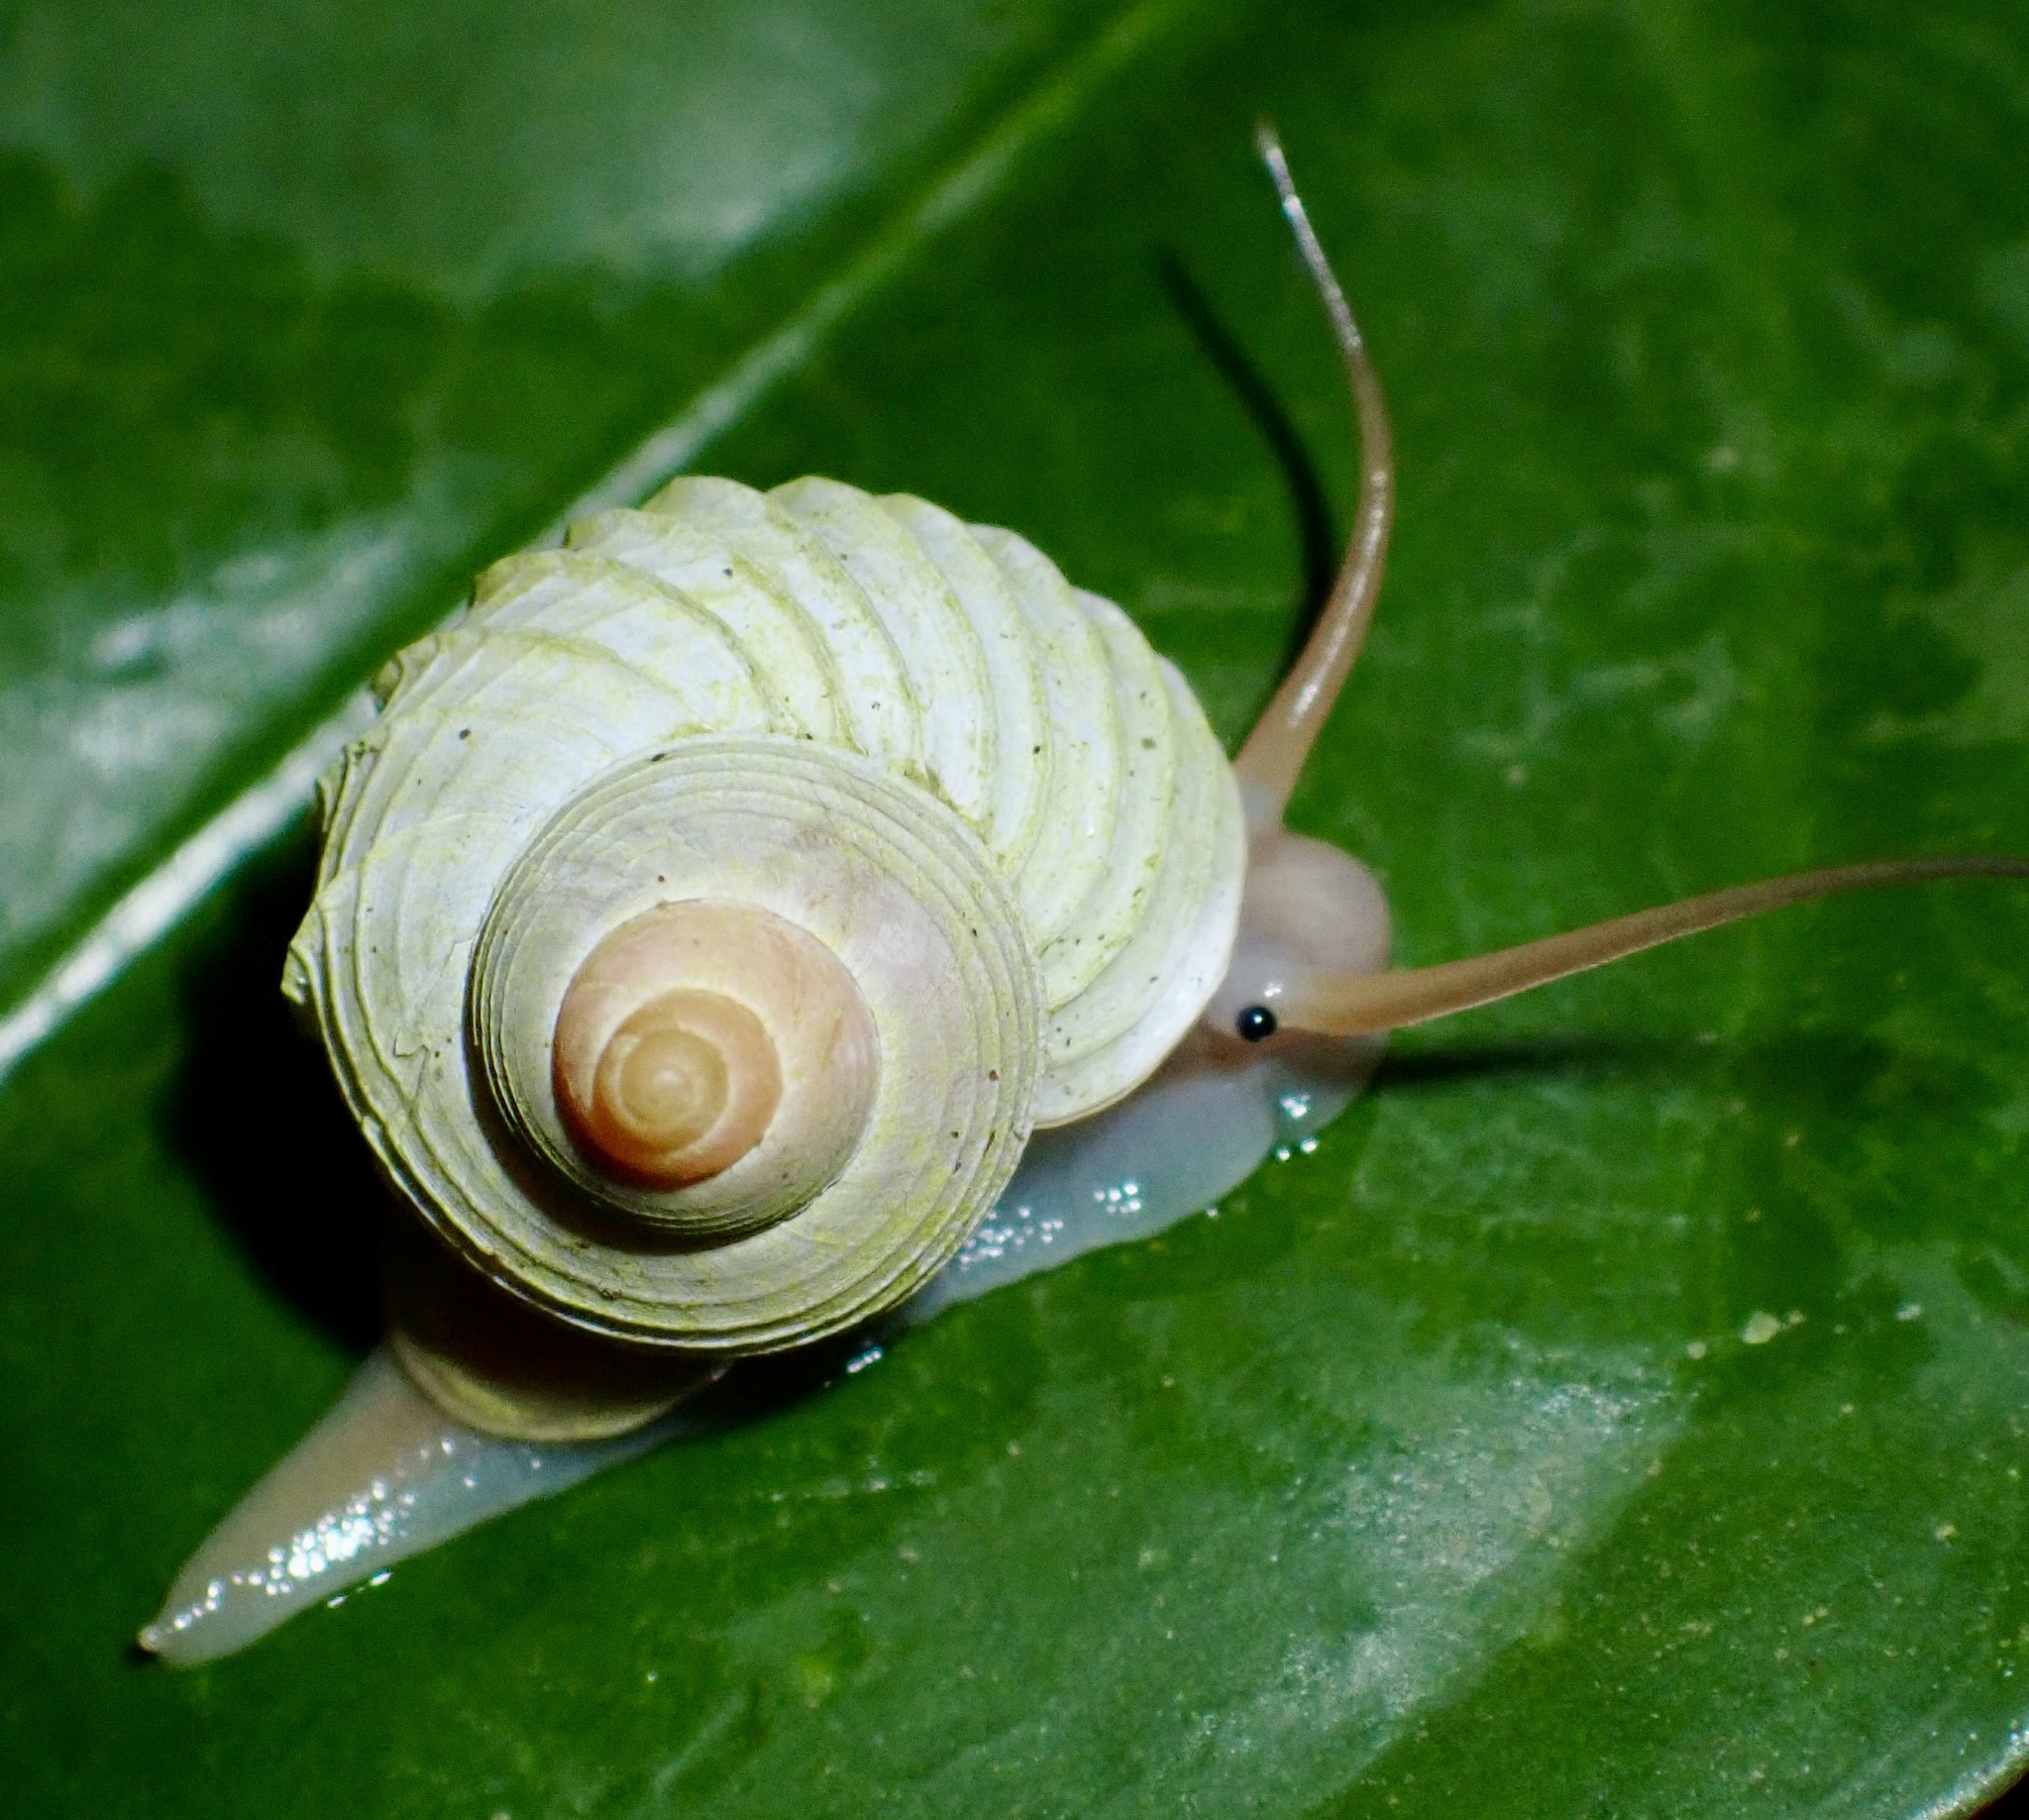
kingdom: Animalia
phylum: Mollusca
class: Gastropoda
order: Architaenioglossa
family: Cyclophoridae
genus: Leptopoma
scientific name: Leptopoma lamellatum
